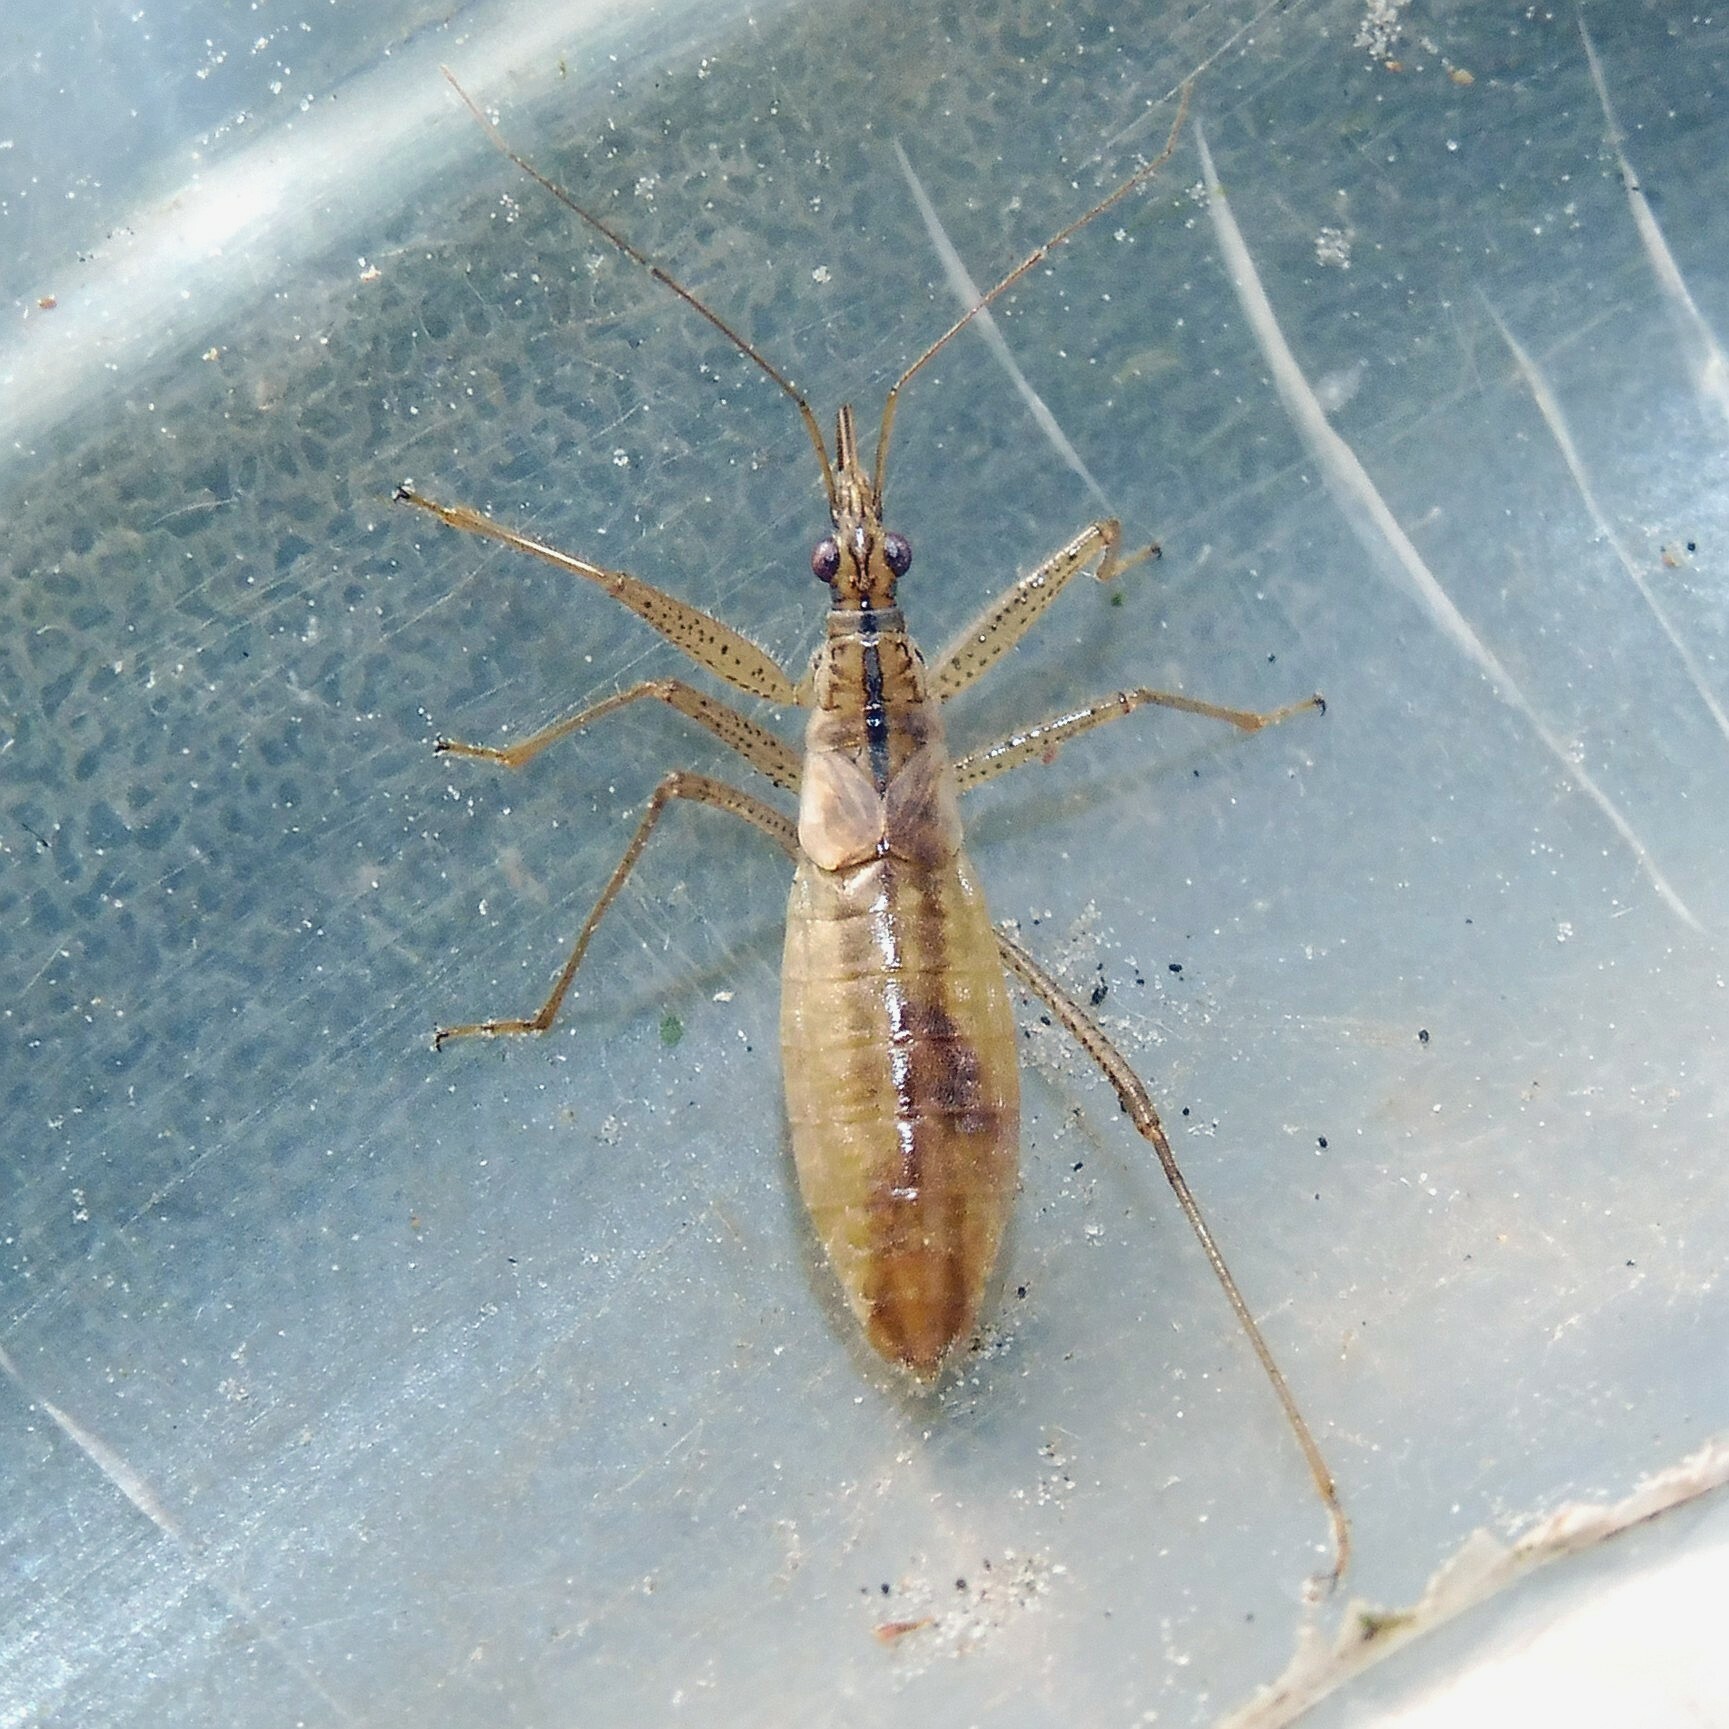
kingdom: Animalia
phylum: Arthropoda
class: Insecta
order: Hemiptera
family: Nabidae
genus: Nabis
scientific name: Nabis limbatus
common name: Marsh damselbug
